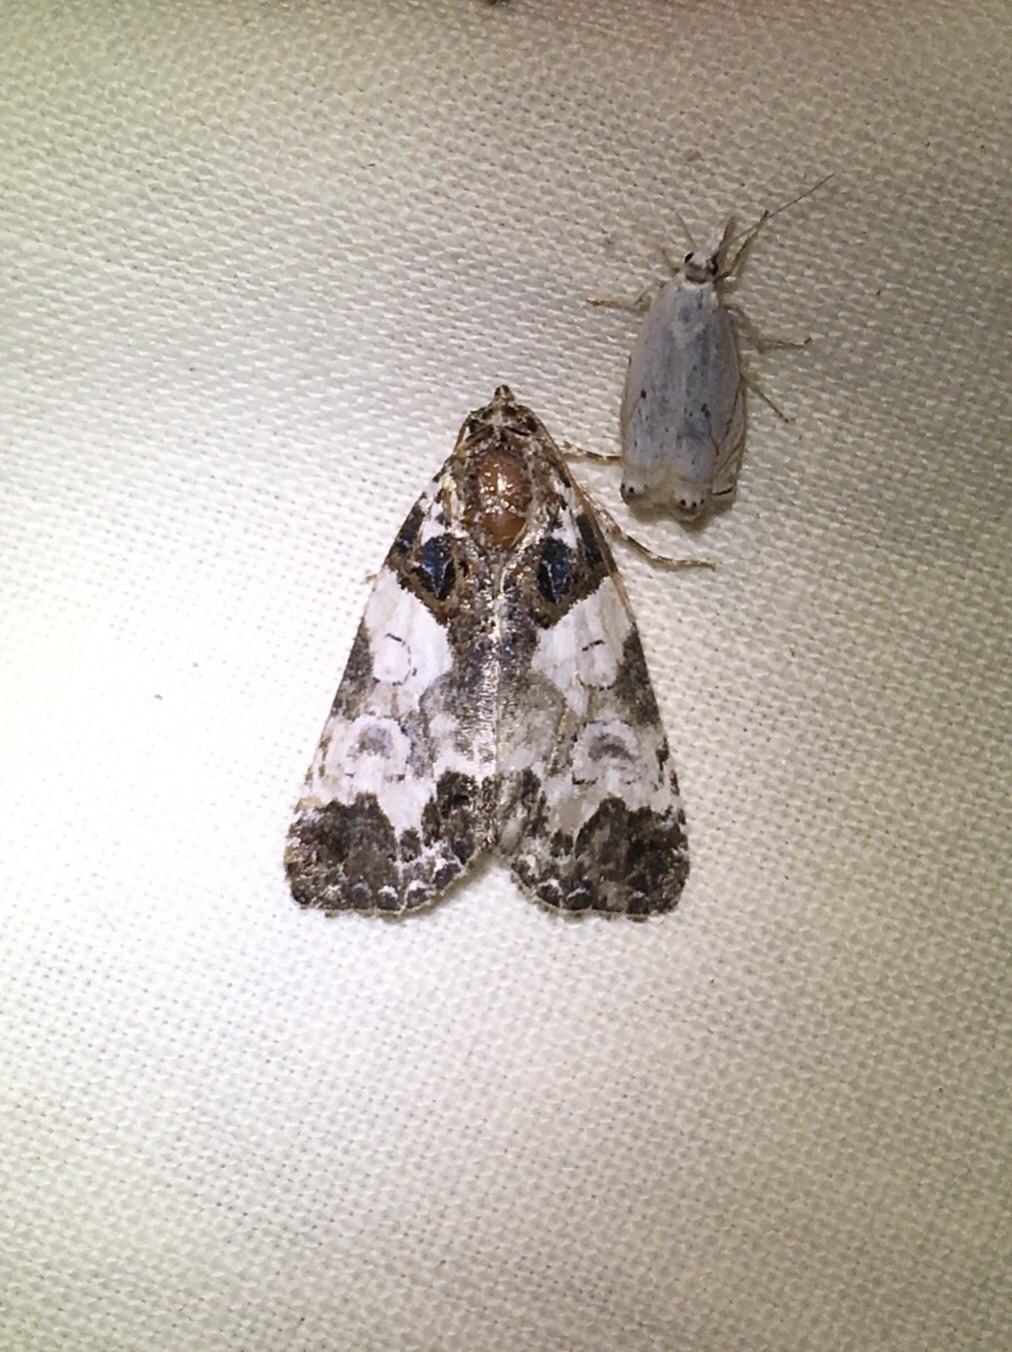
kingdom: Animalia
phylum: Arthropoda
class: Insecta
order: Lepidoptera
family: Noctuidae
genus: Cerma
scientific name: Cerma cerintha
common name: Tufted bird-dropping moth
